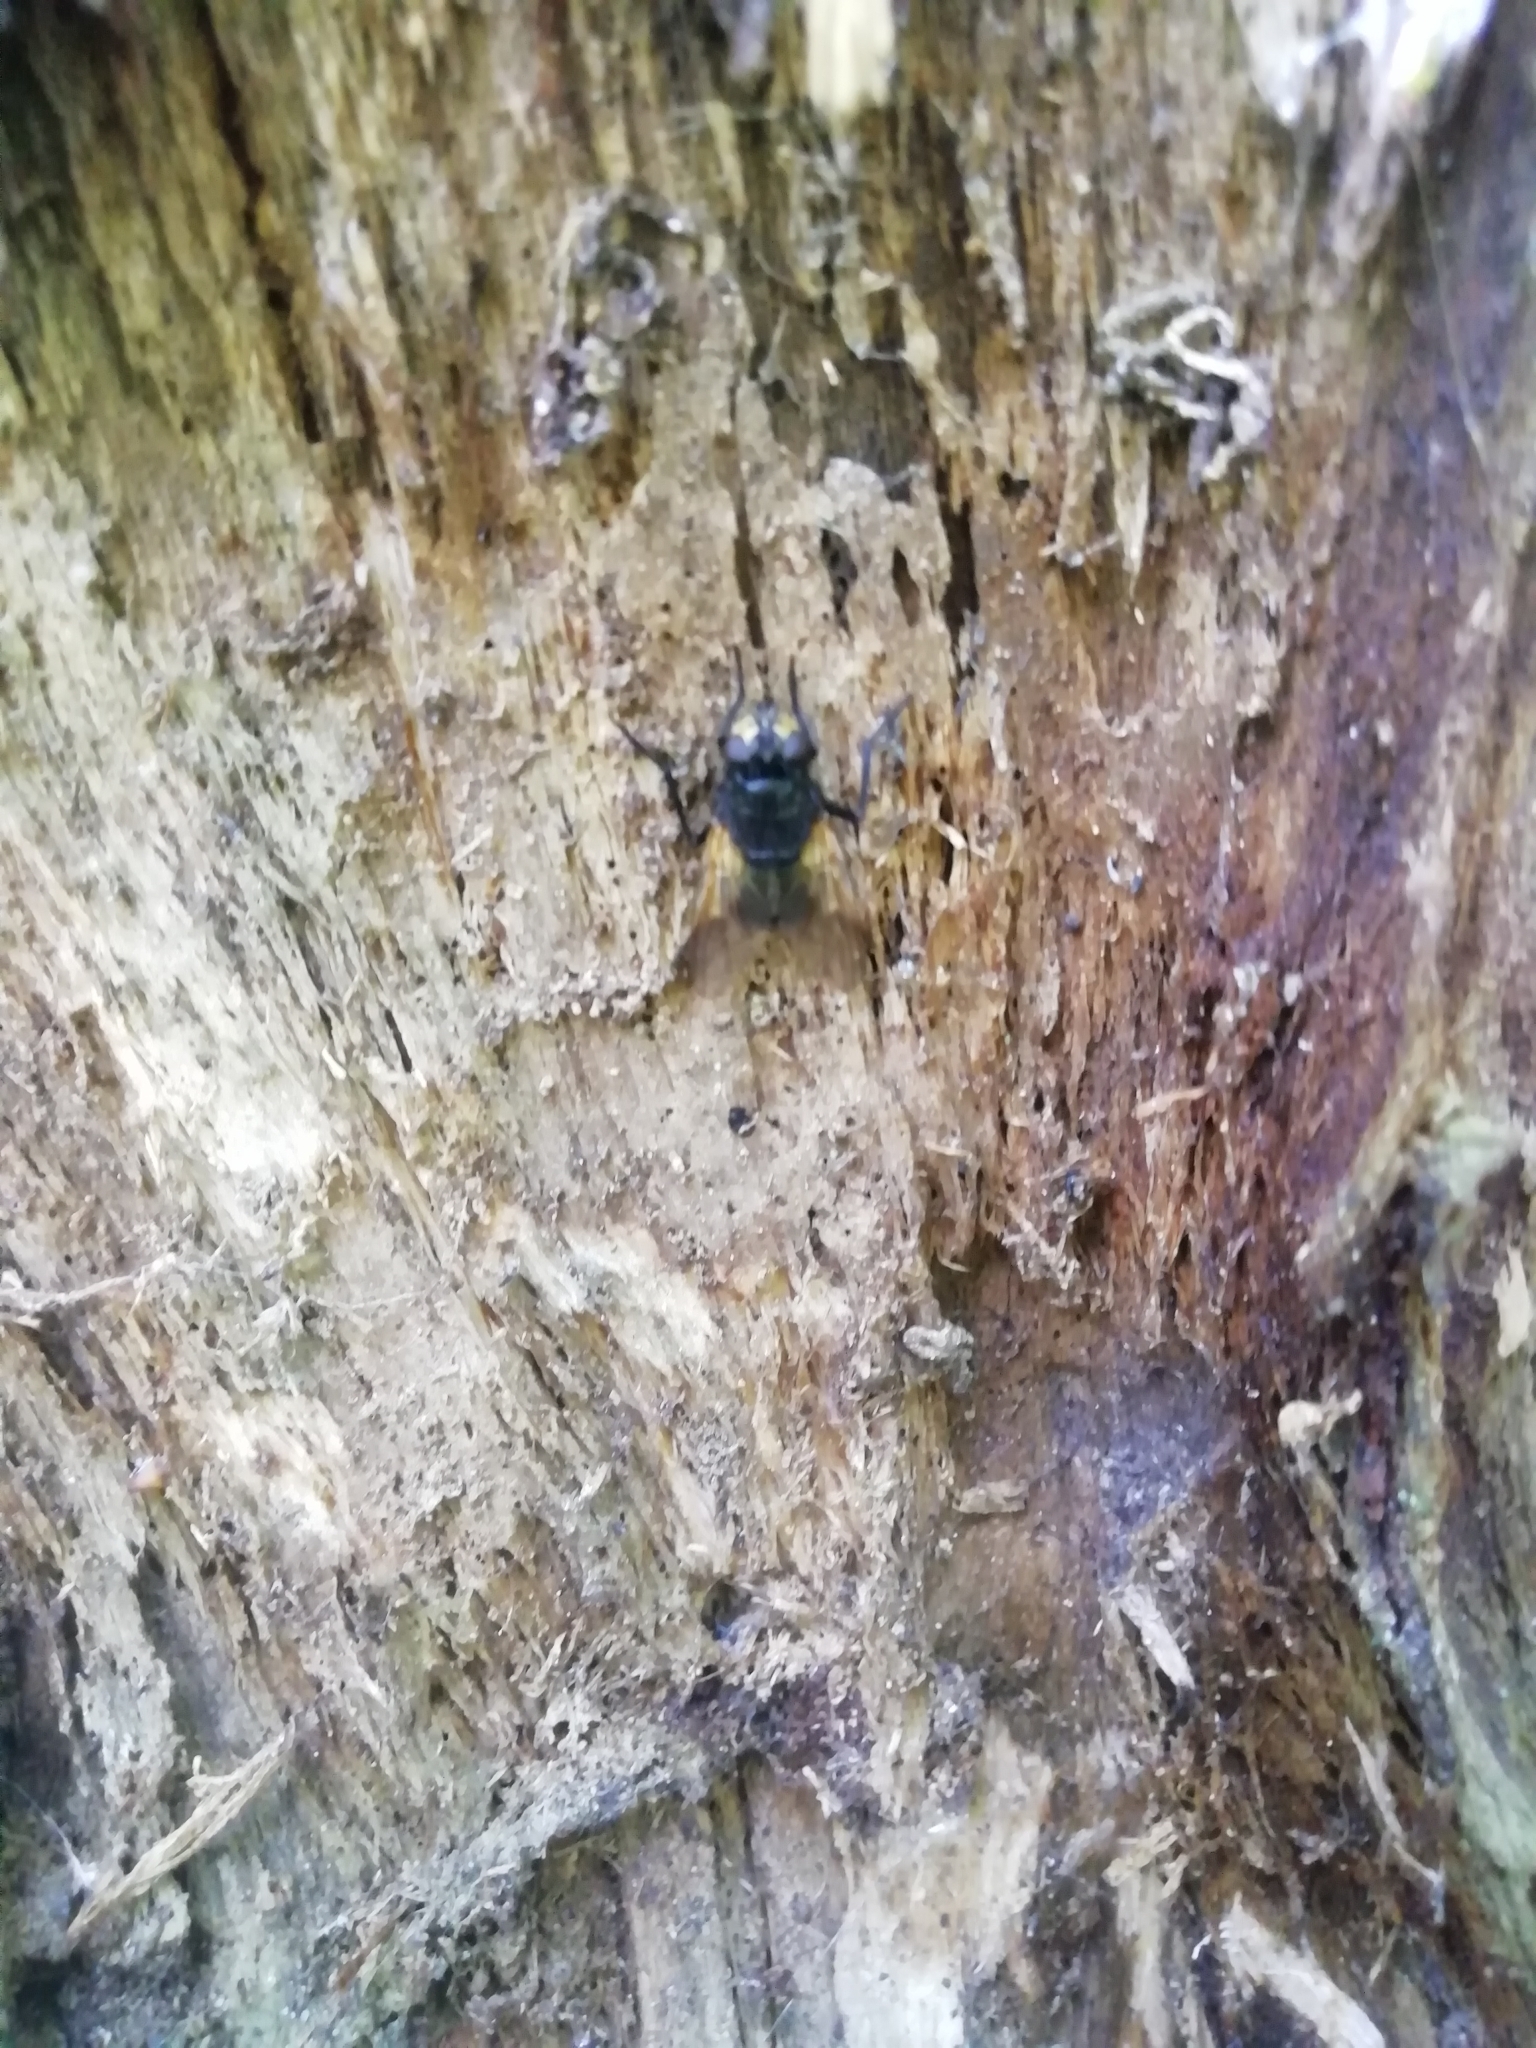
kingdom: Animalia
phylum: Arthropoda
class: Insecta
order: Diptera
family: Muscidae
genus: Mesembrina
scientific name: Mesembrina meridiana
